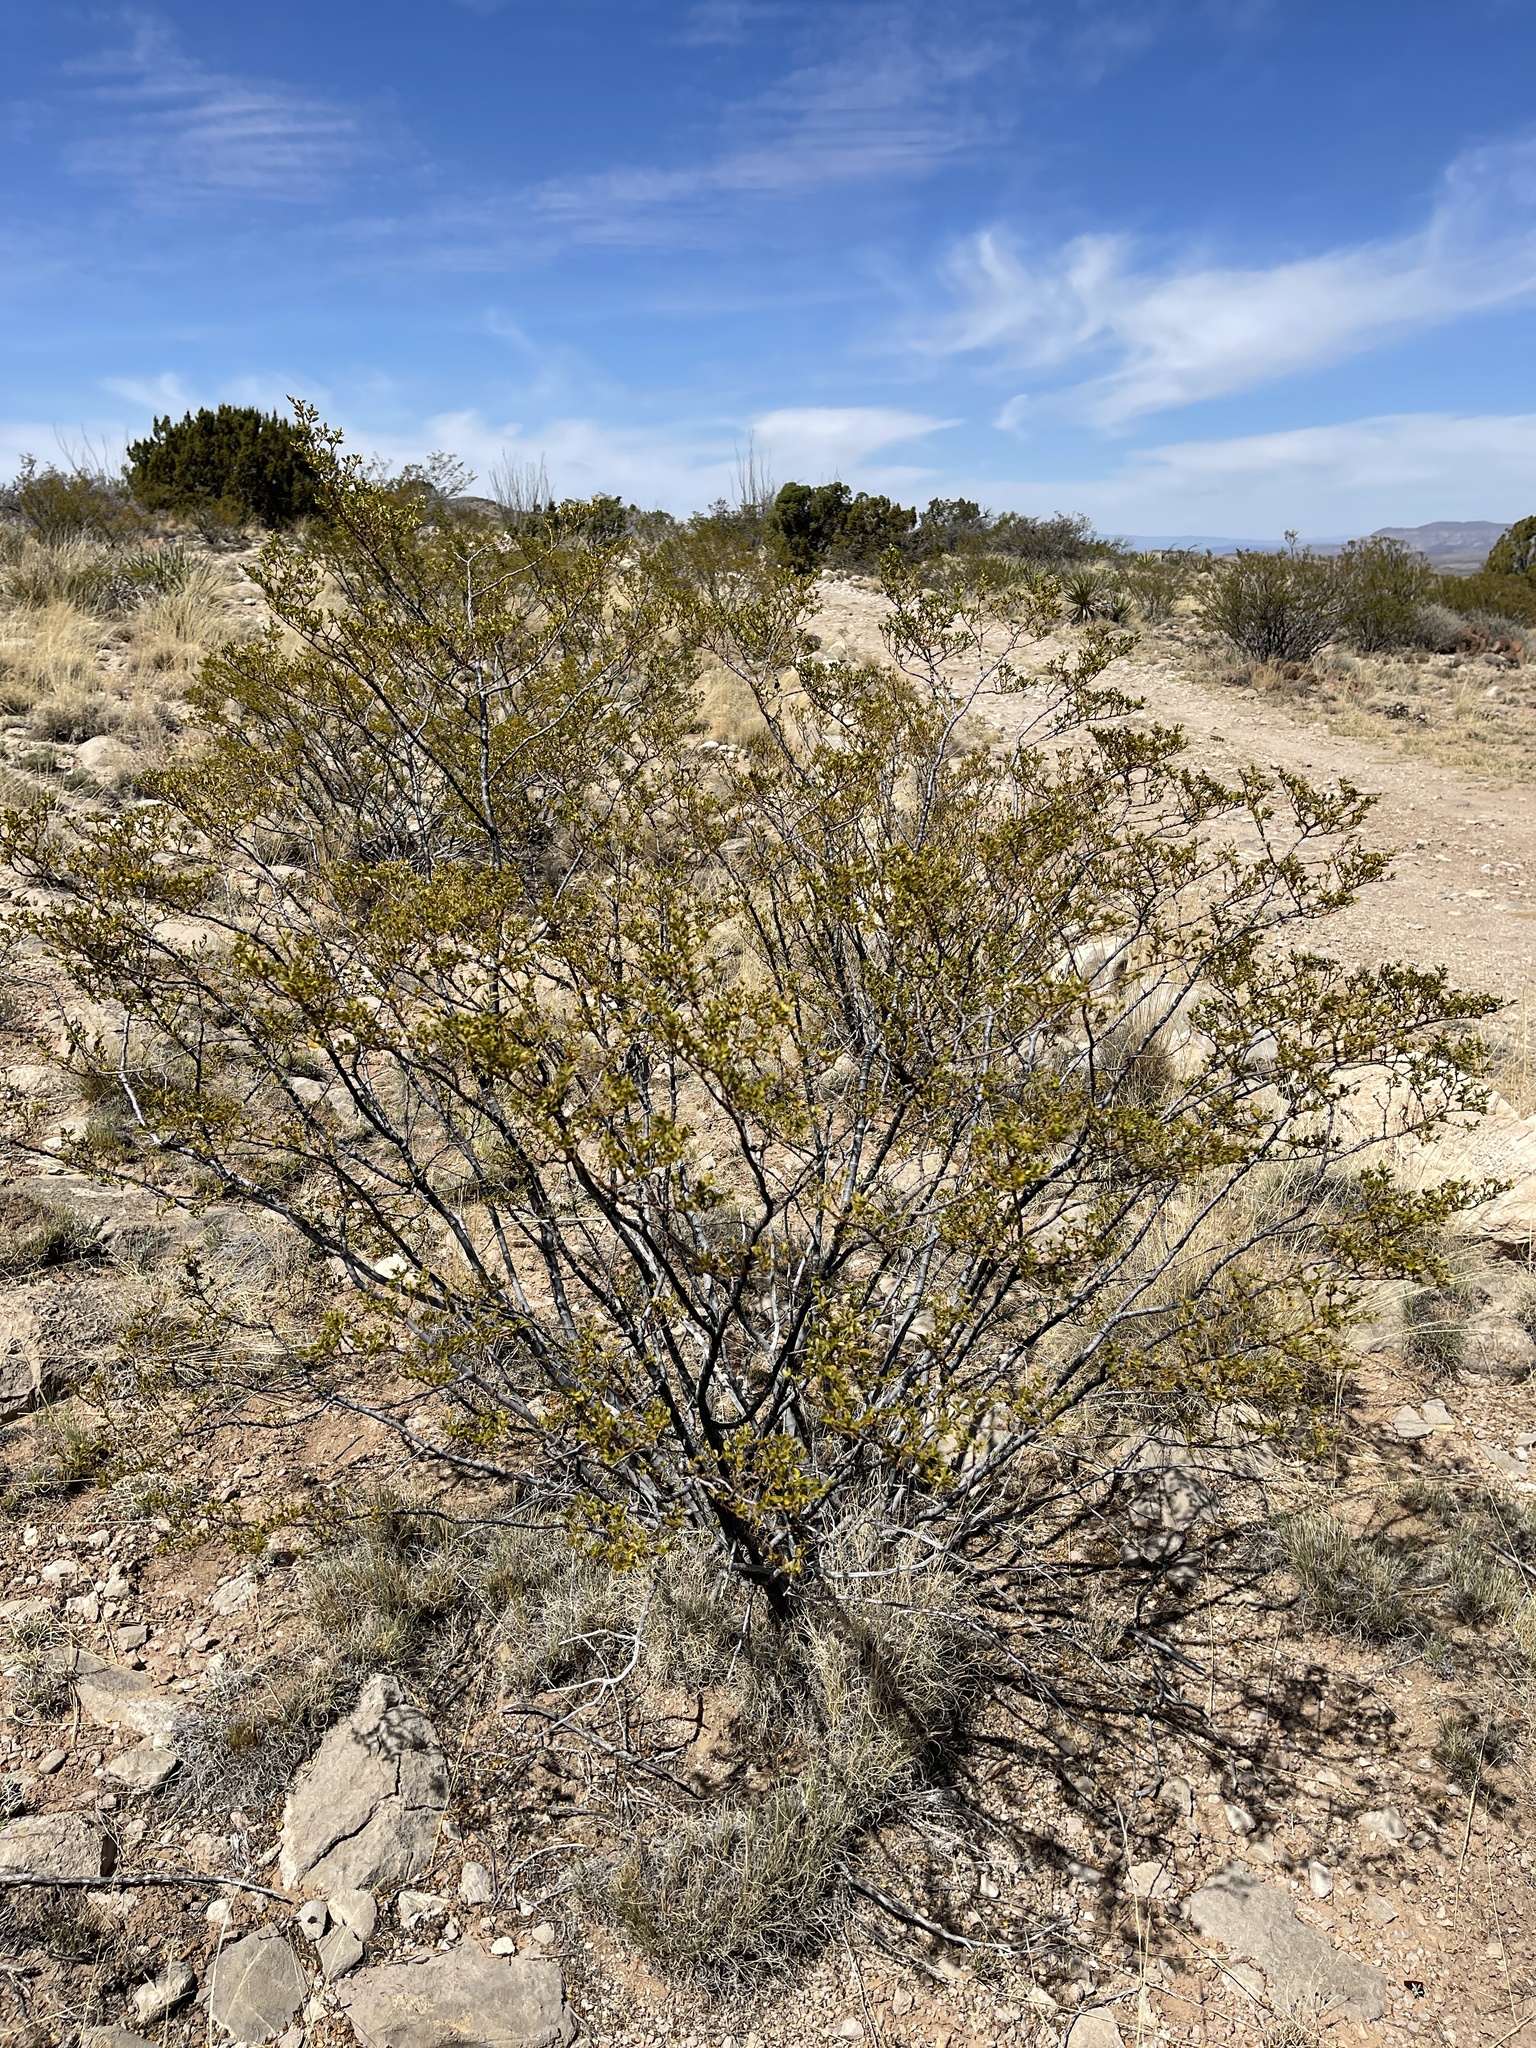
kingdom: Plantae
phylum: Tracheophyta
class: Magnoliopsida
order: Zygophyllales
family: Zygophyllaceae
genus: Larrea
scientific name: Larrea tridentata
